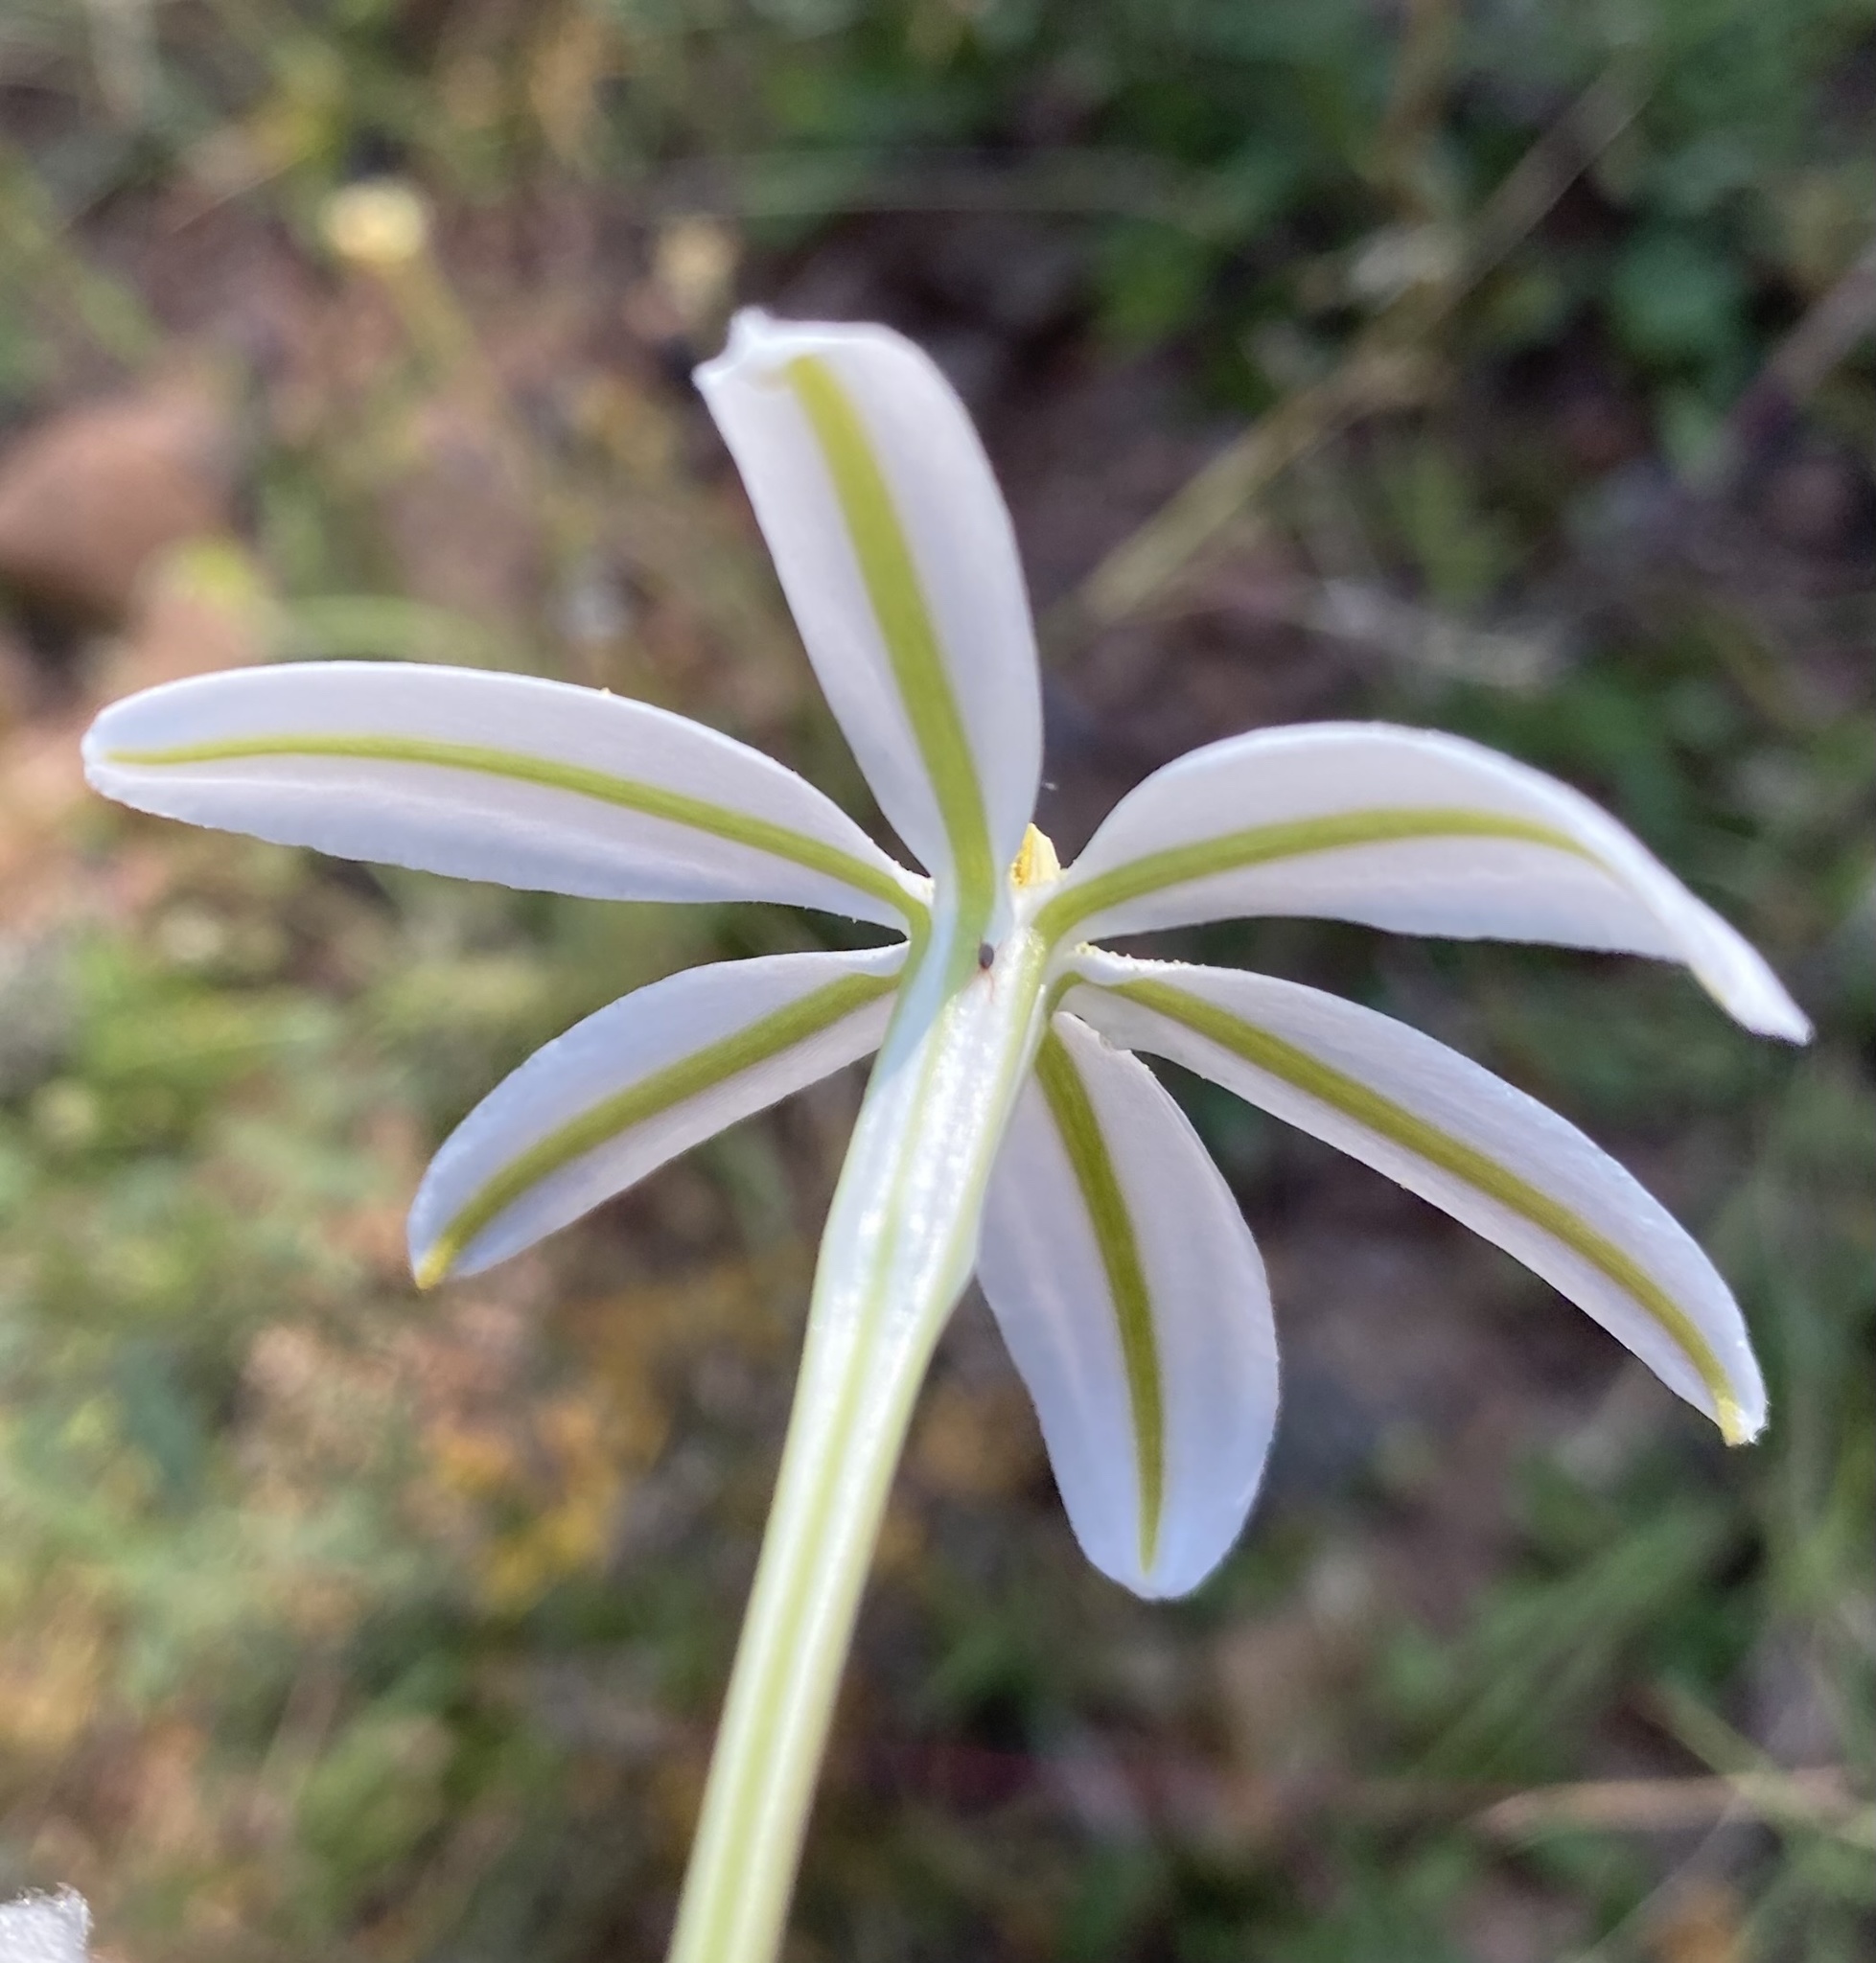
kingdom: Plantae
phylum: Tracheophyta
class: Liliopsida
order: Asparagales
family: Asparagaceae
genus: Milla
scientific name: Milla biflora
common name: Mexican-star
